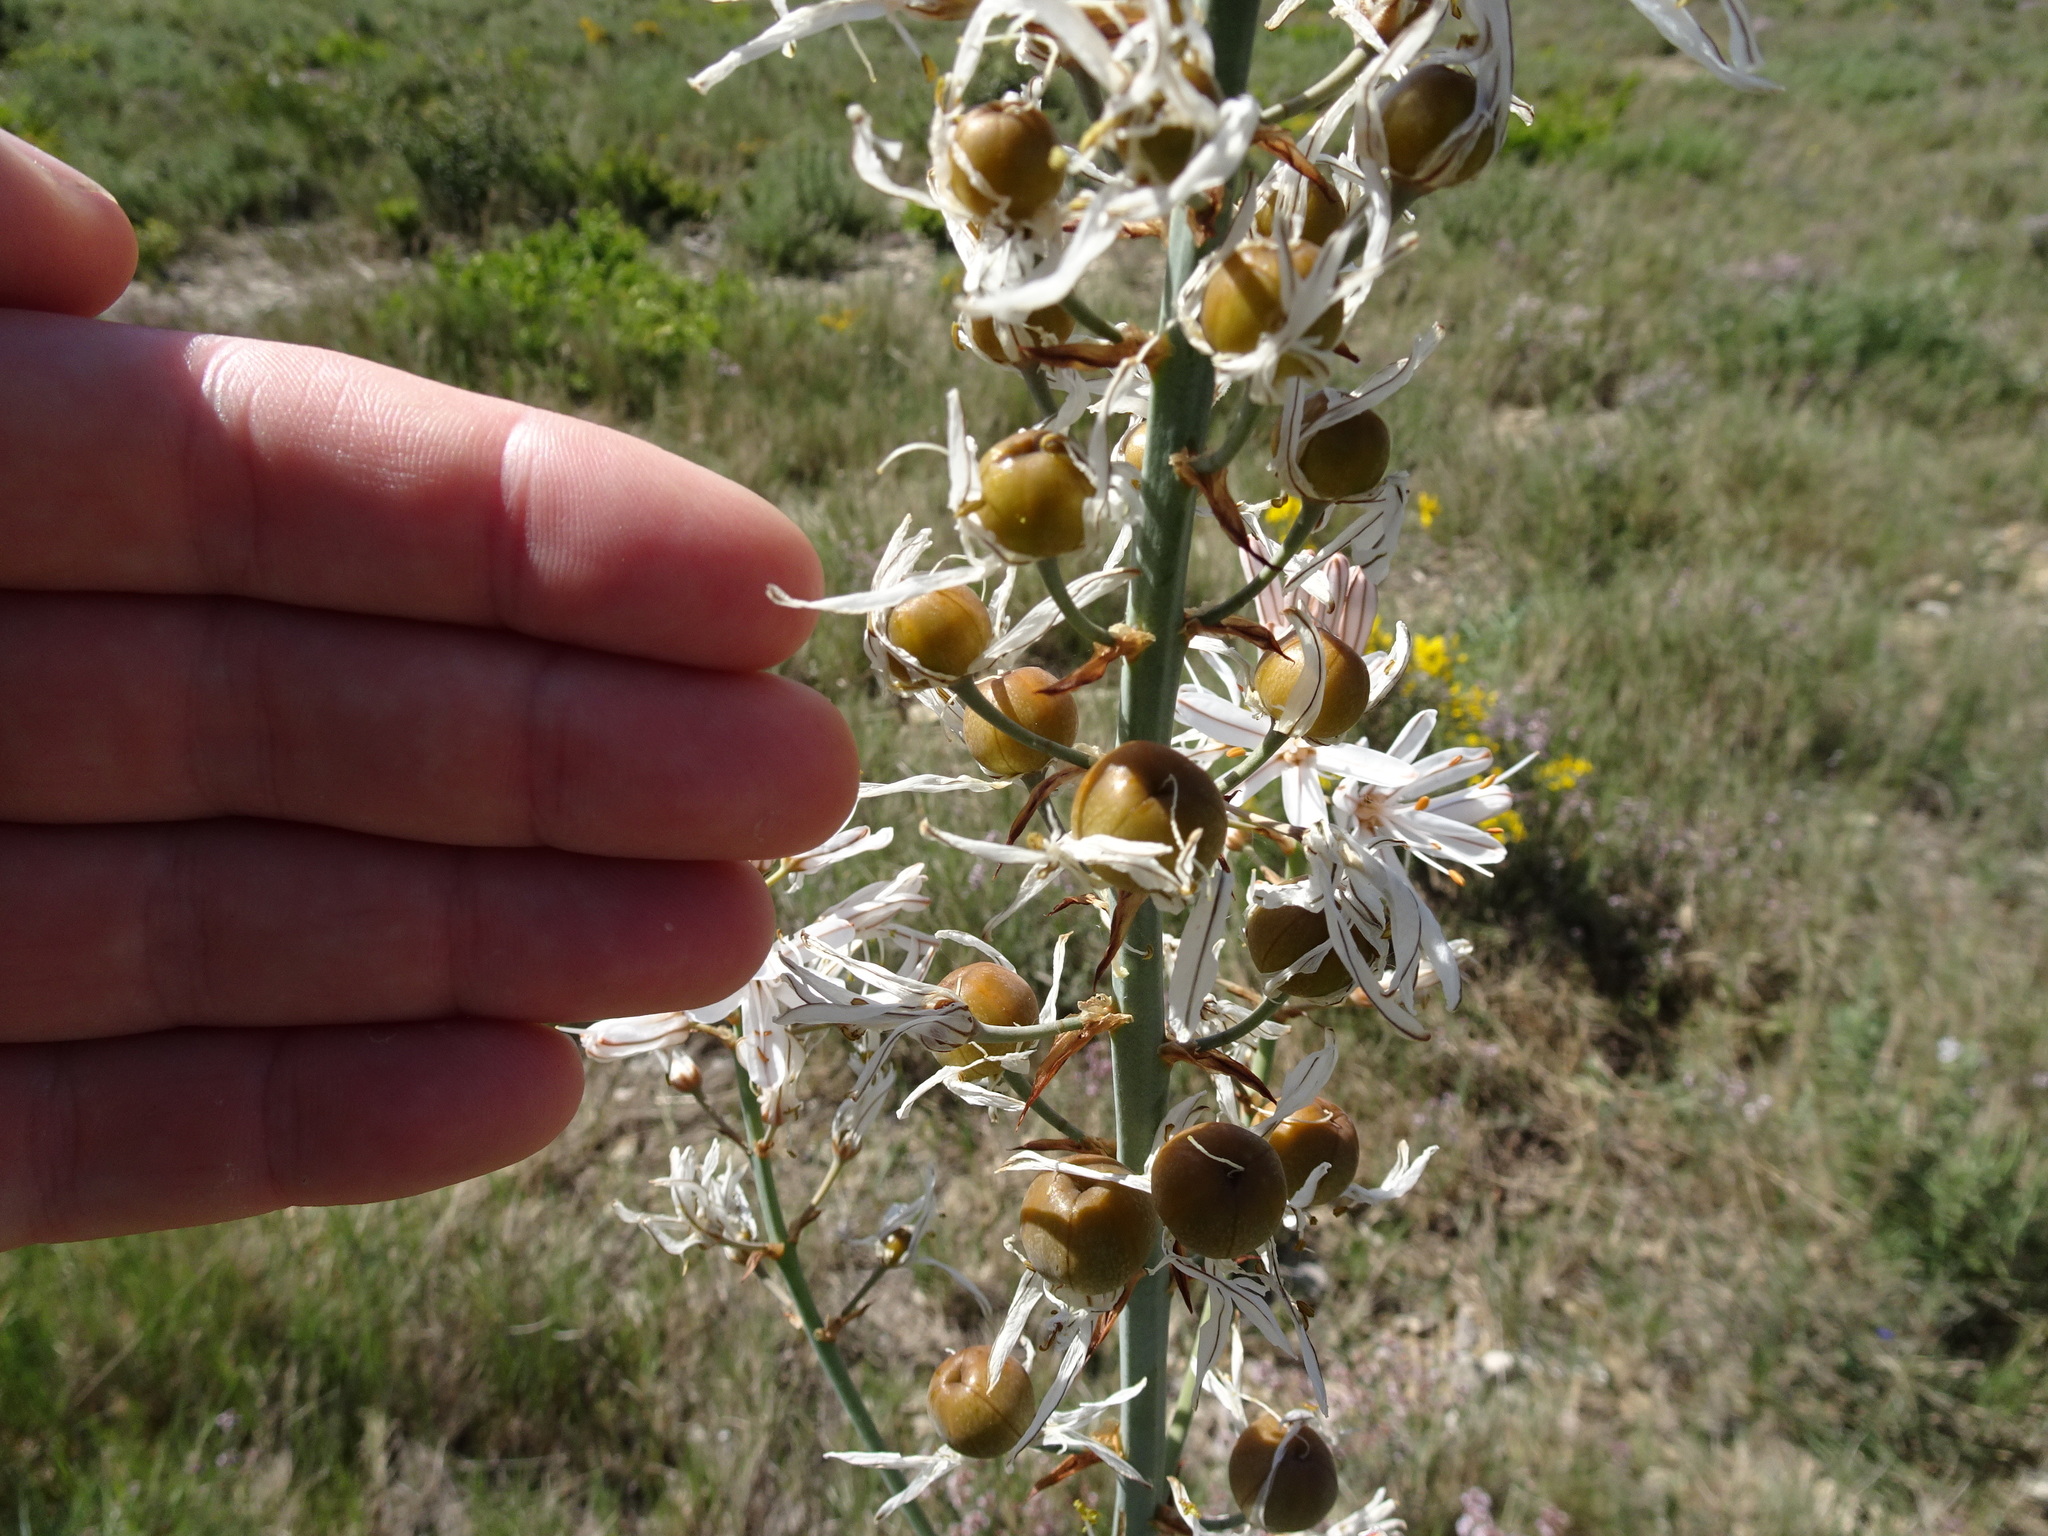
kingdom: Plantae
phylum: Tracheophyta
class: Liliopsida
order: Asparagales
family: Asphodelaceae
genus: Asphodelus
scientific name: Asphodelus cerasifer
